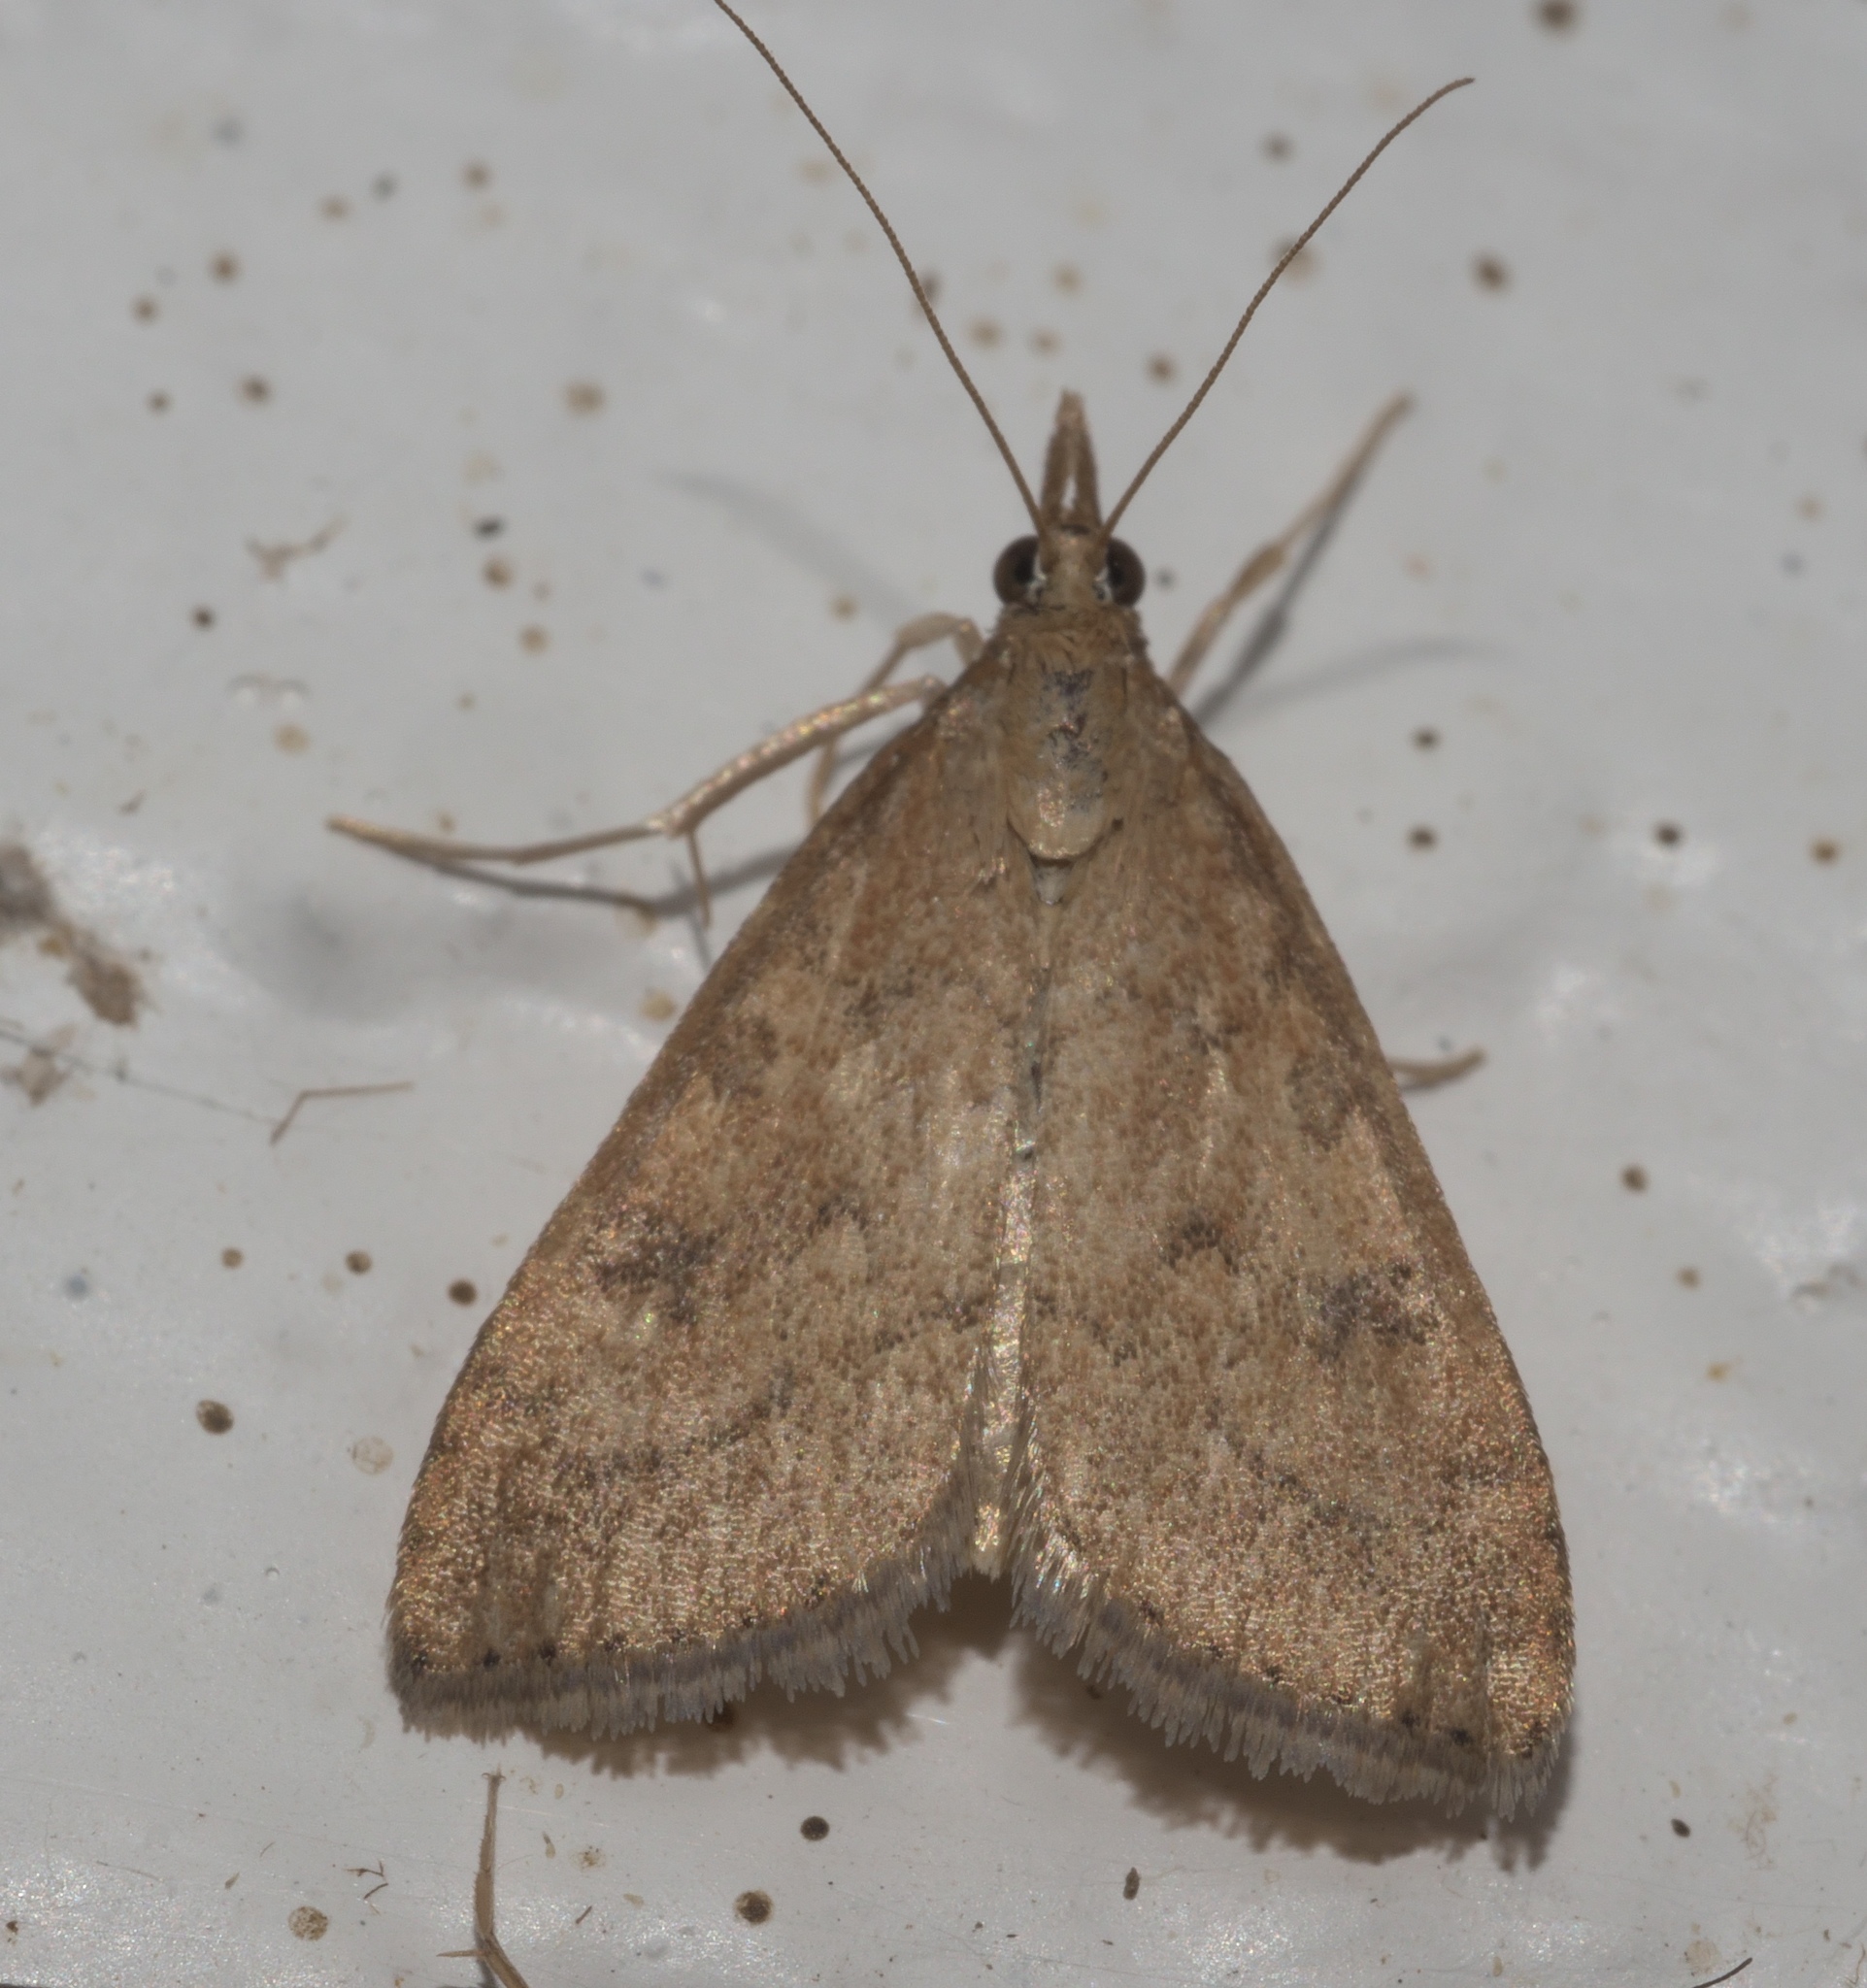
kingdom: Animalia
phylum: Arthropoda
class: Insecta
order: Lepidoptera
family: Crambidae
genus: Udea
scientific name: Udea rubigalis
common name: Celery leaftier moth
